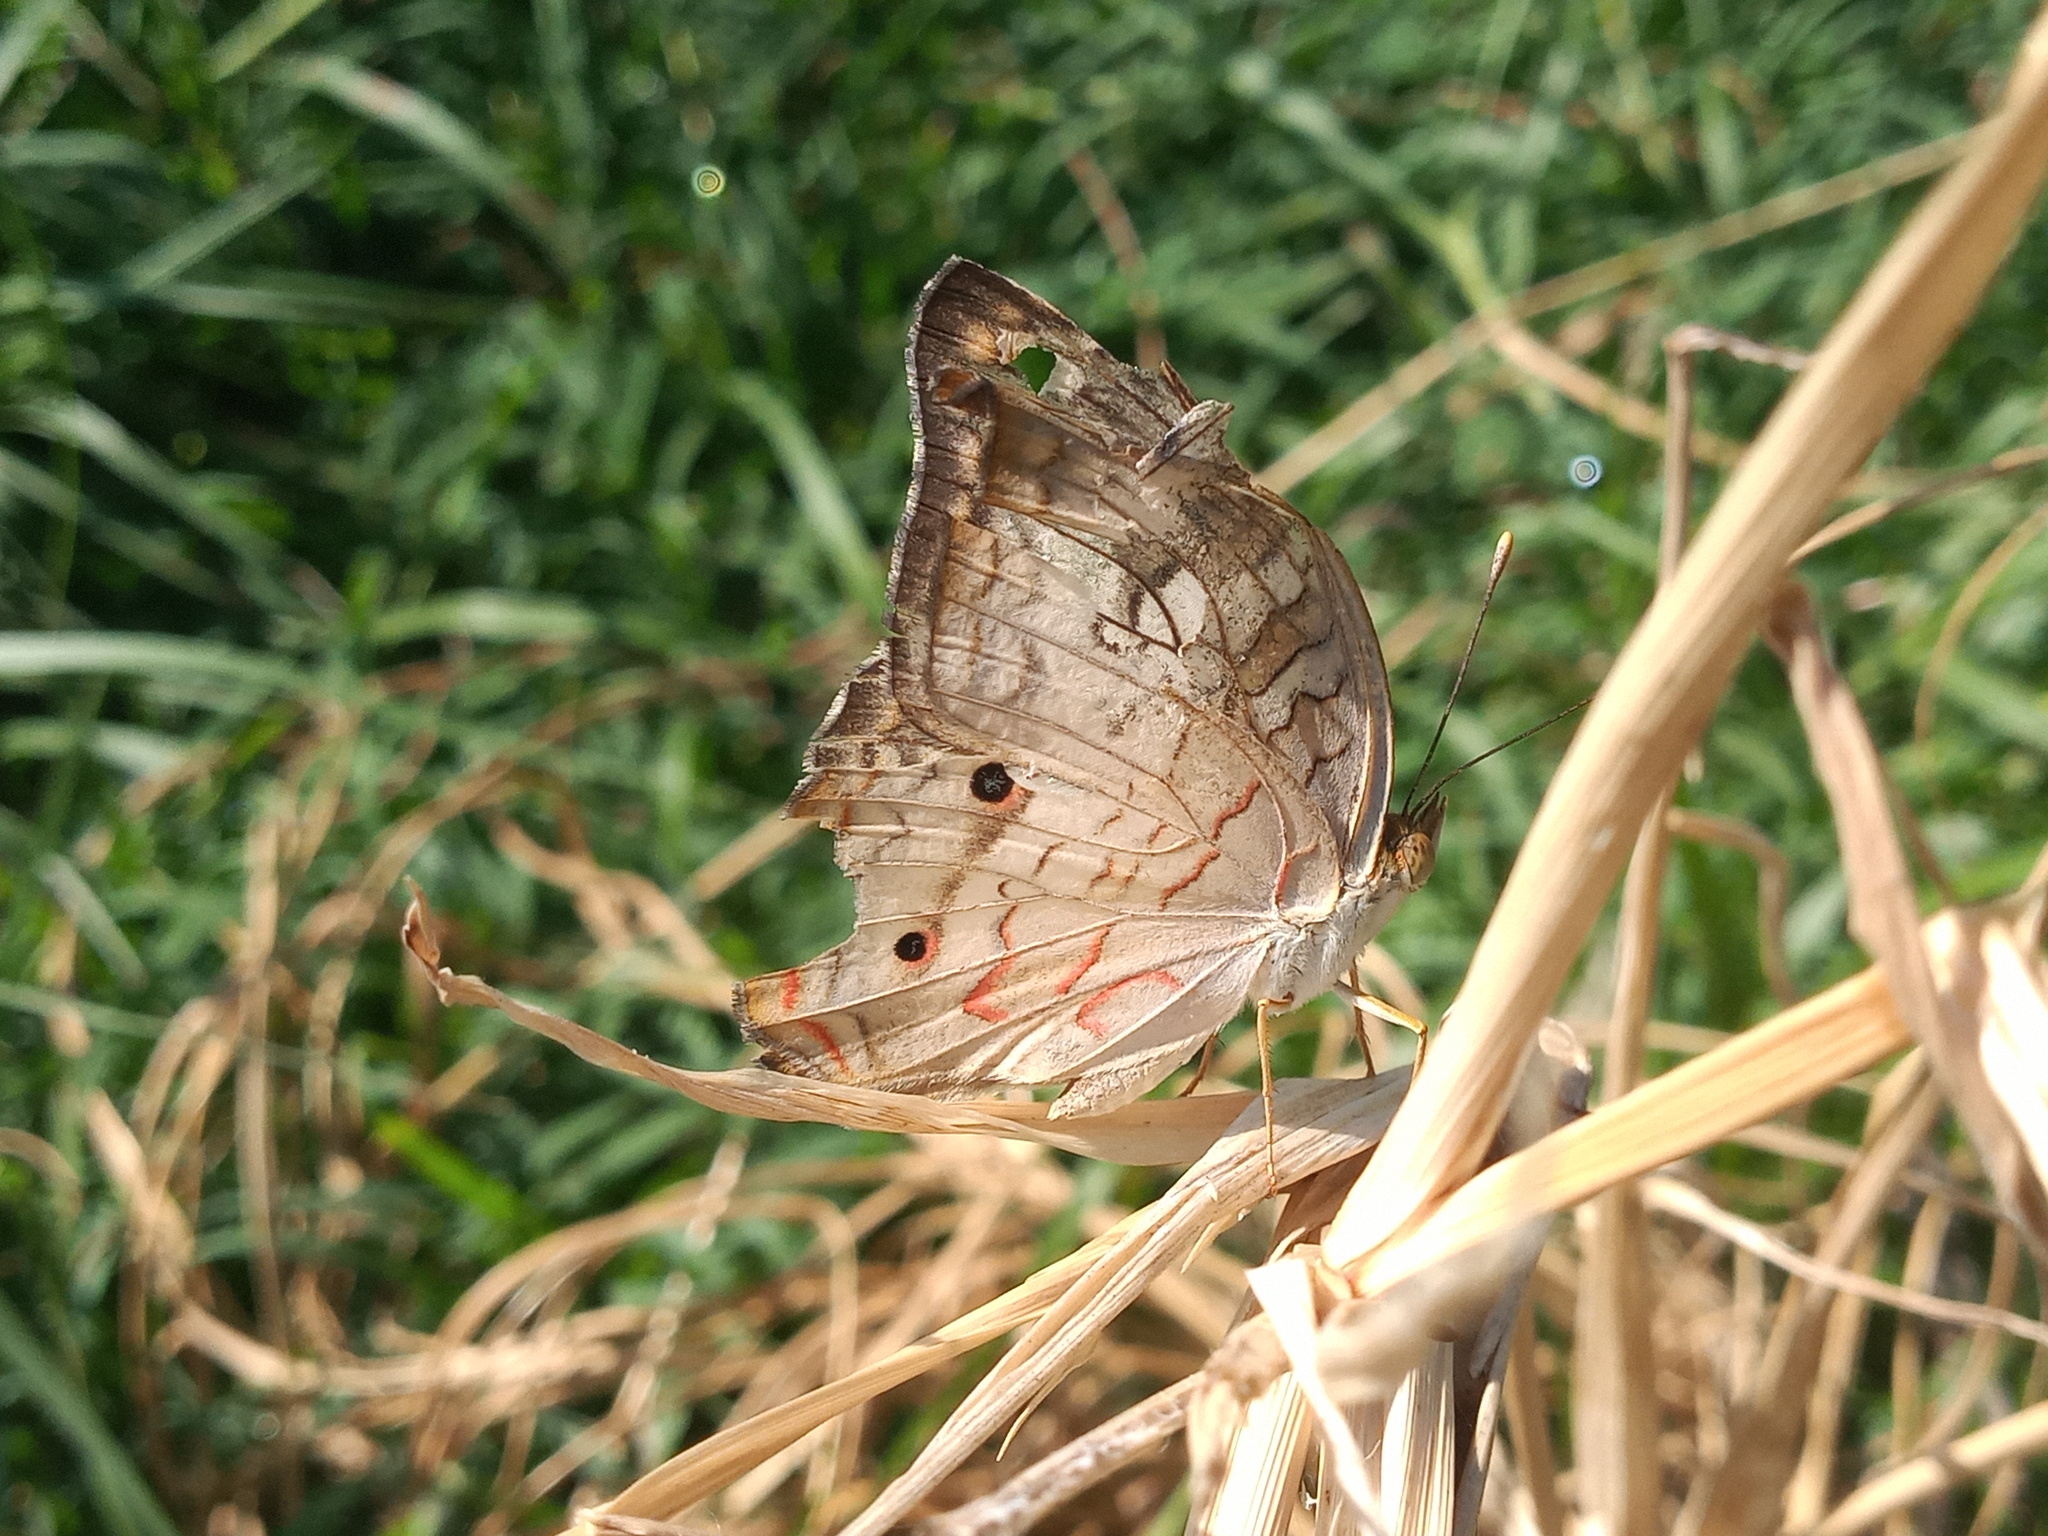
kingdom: Animalia
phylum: Arthropoda
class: Insecta
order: Lepidoptera
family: Nymphalidae
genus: Anartia
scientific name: Anartia jatrophae
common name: White peacock
